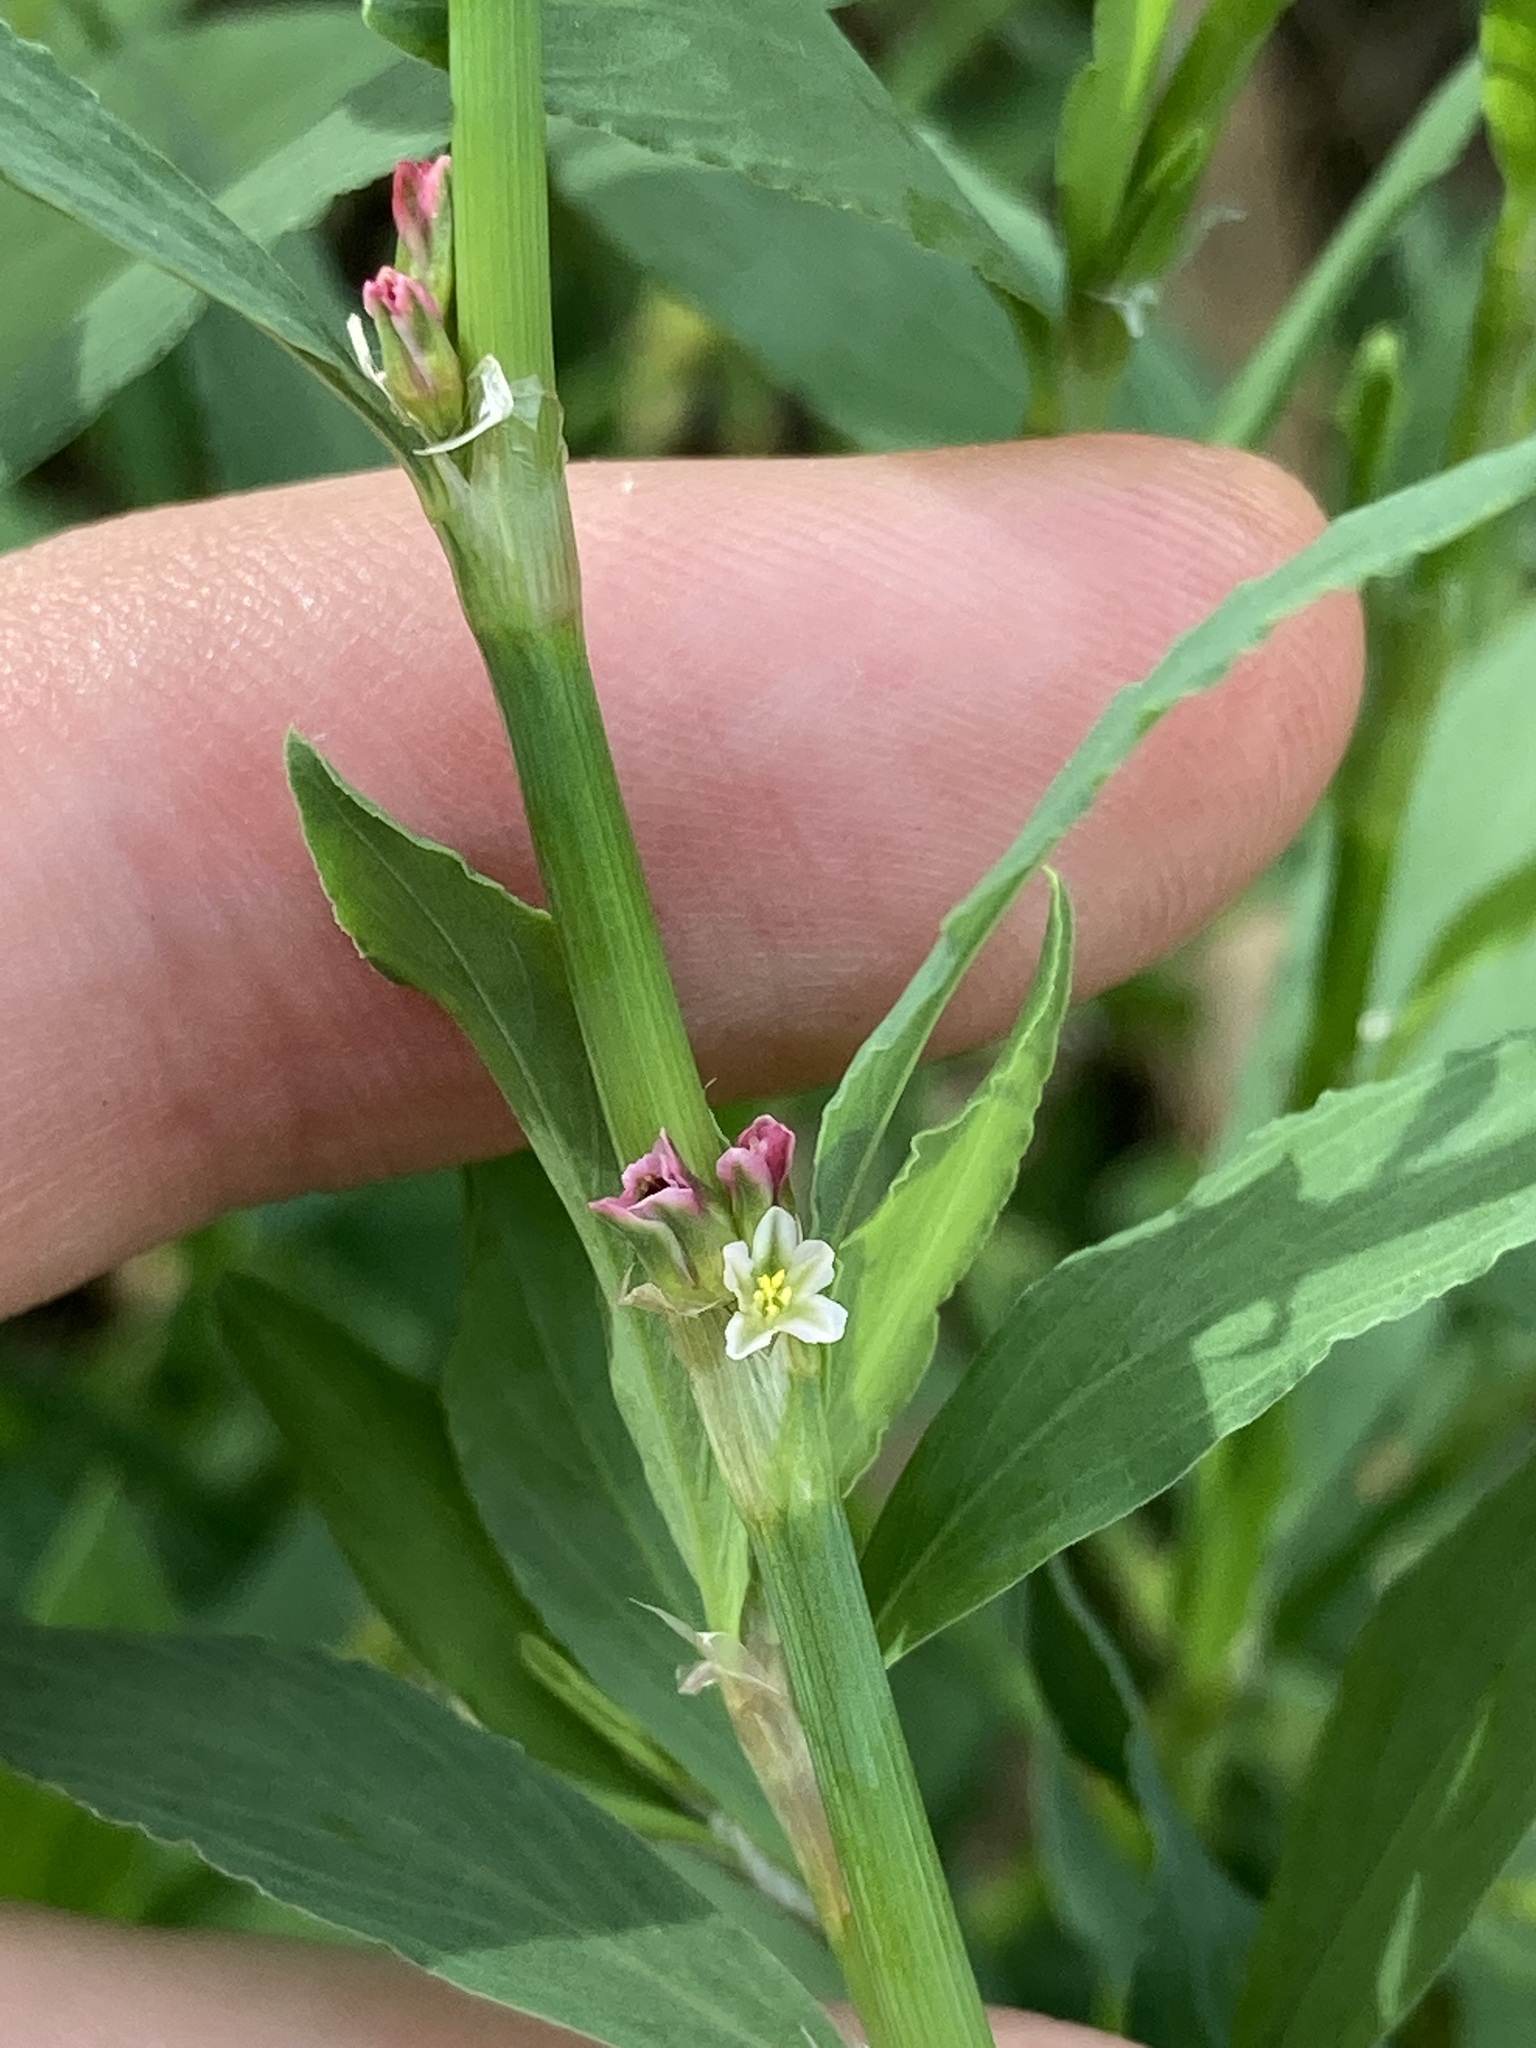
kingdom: Plantae
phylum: Tracheophyta
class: Magnoliopsida
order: Caryophyllales
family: Polygonaceae
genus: Polygonum
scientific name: Polygonum aviculare
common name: Prostrate knotweed
